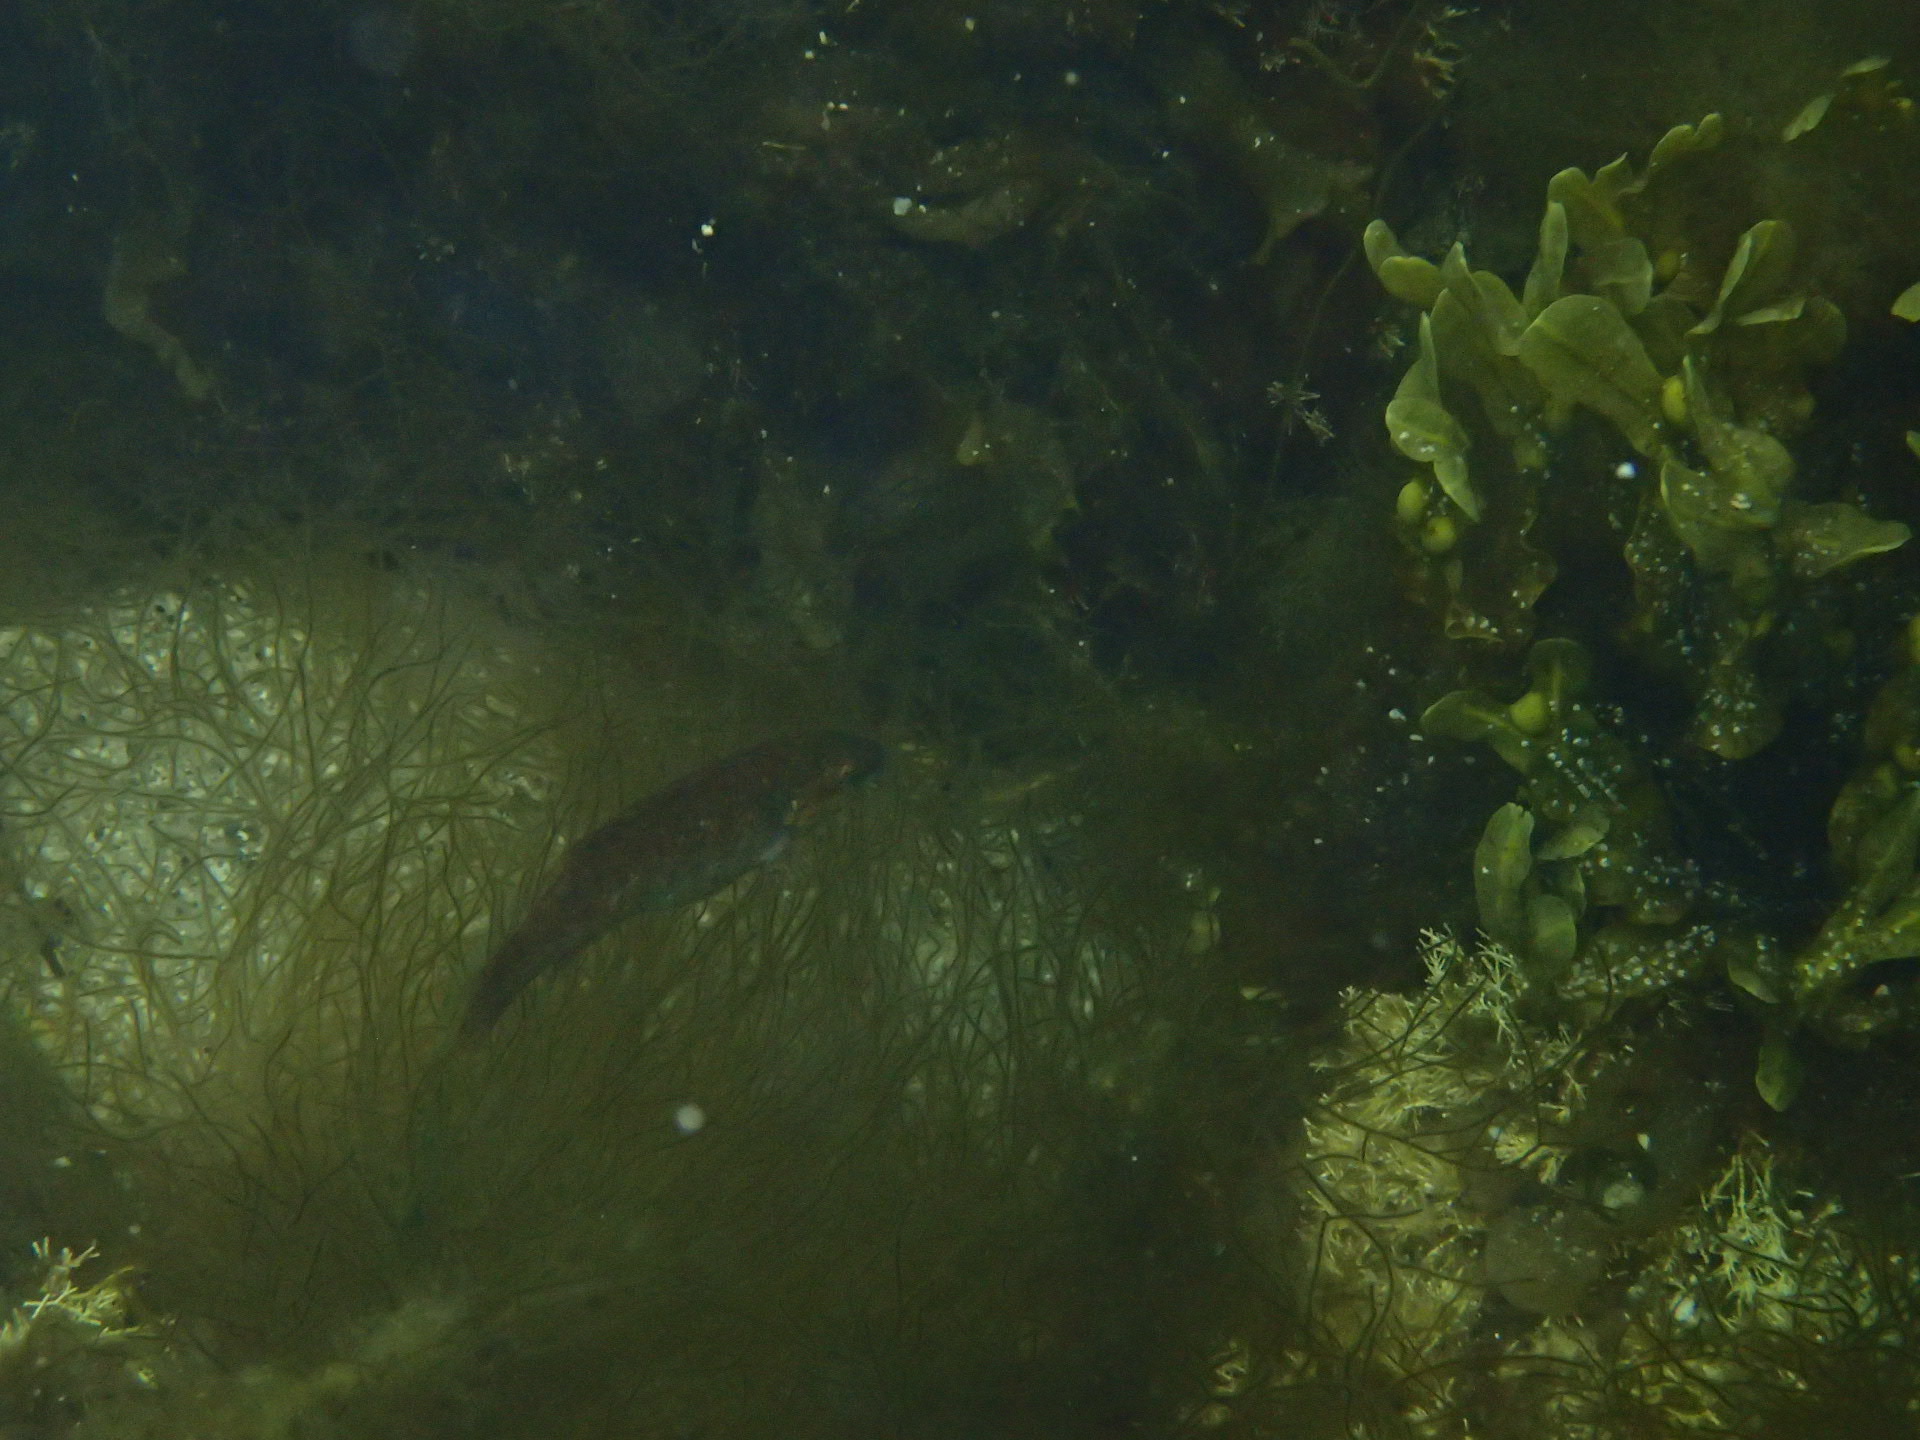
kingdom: Animalia
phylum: Chordata
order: Perciformes
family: Labridae
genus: Tautogolabrus
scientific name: Tautogolabrus adspersus
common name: Cunner
